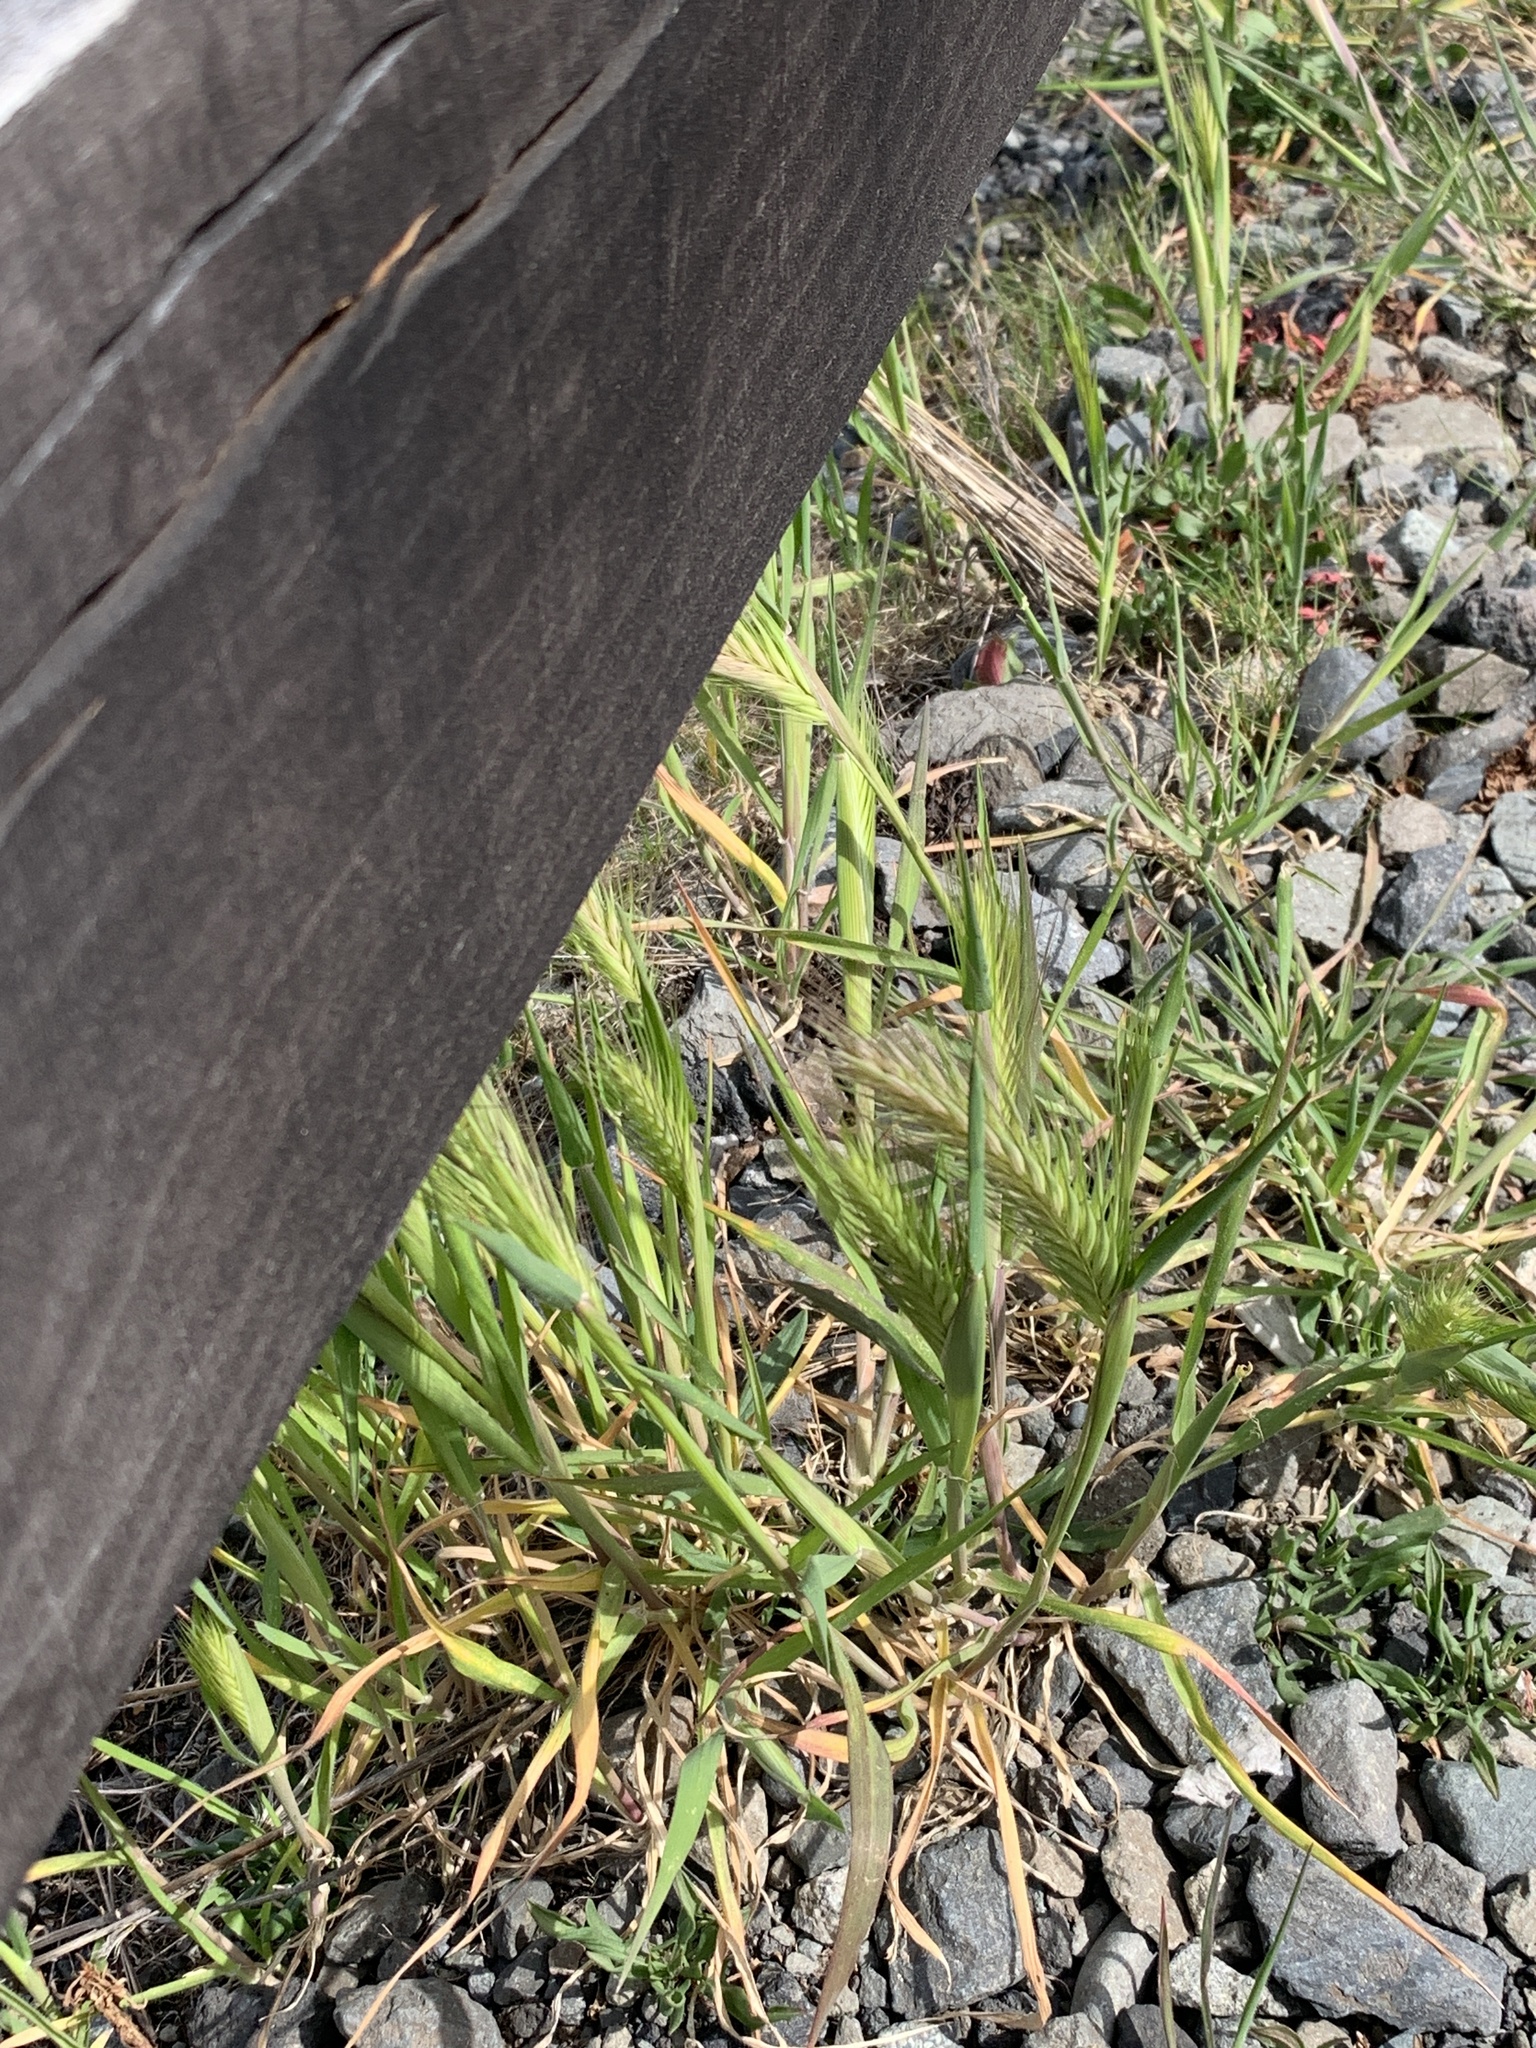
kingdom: Plantae
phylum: Tracheophyta
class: Liliopsida
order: Poales
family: Poaceae
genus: Hordeum
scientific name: Hordeum murinum
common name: Wall barley
